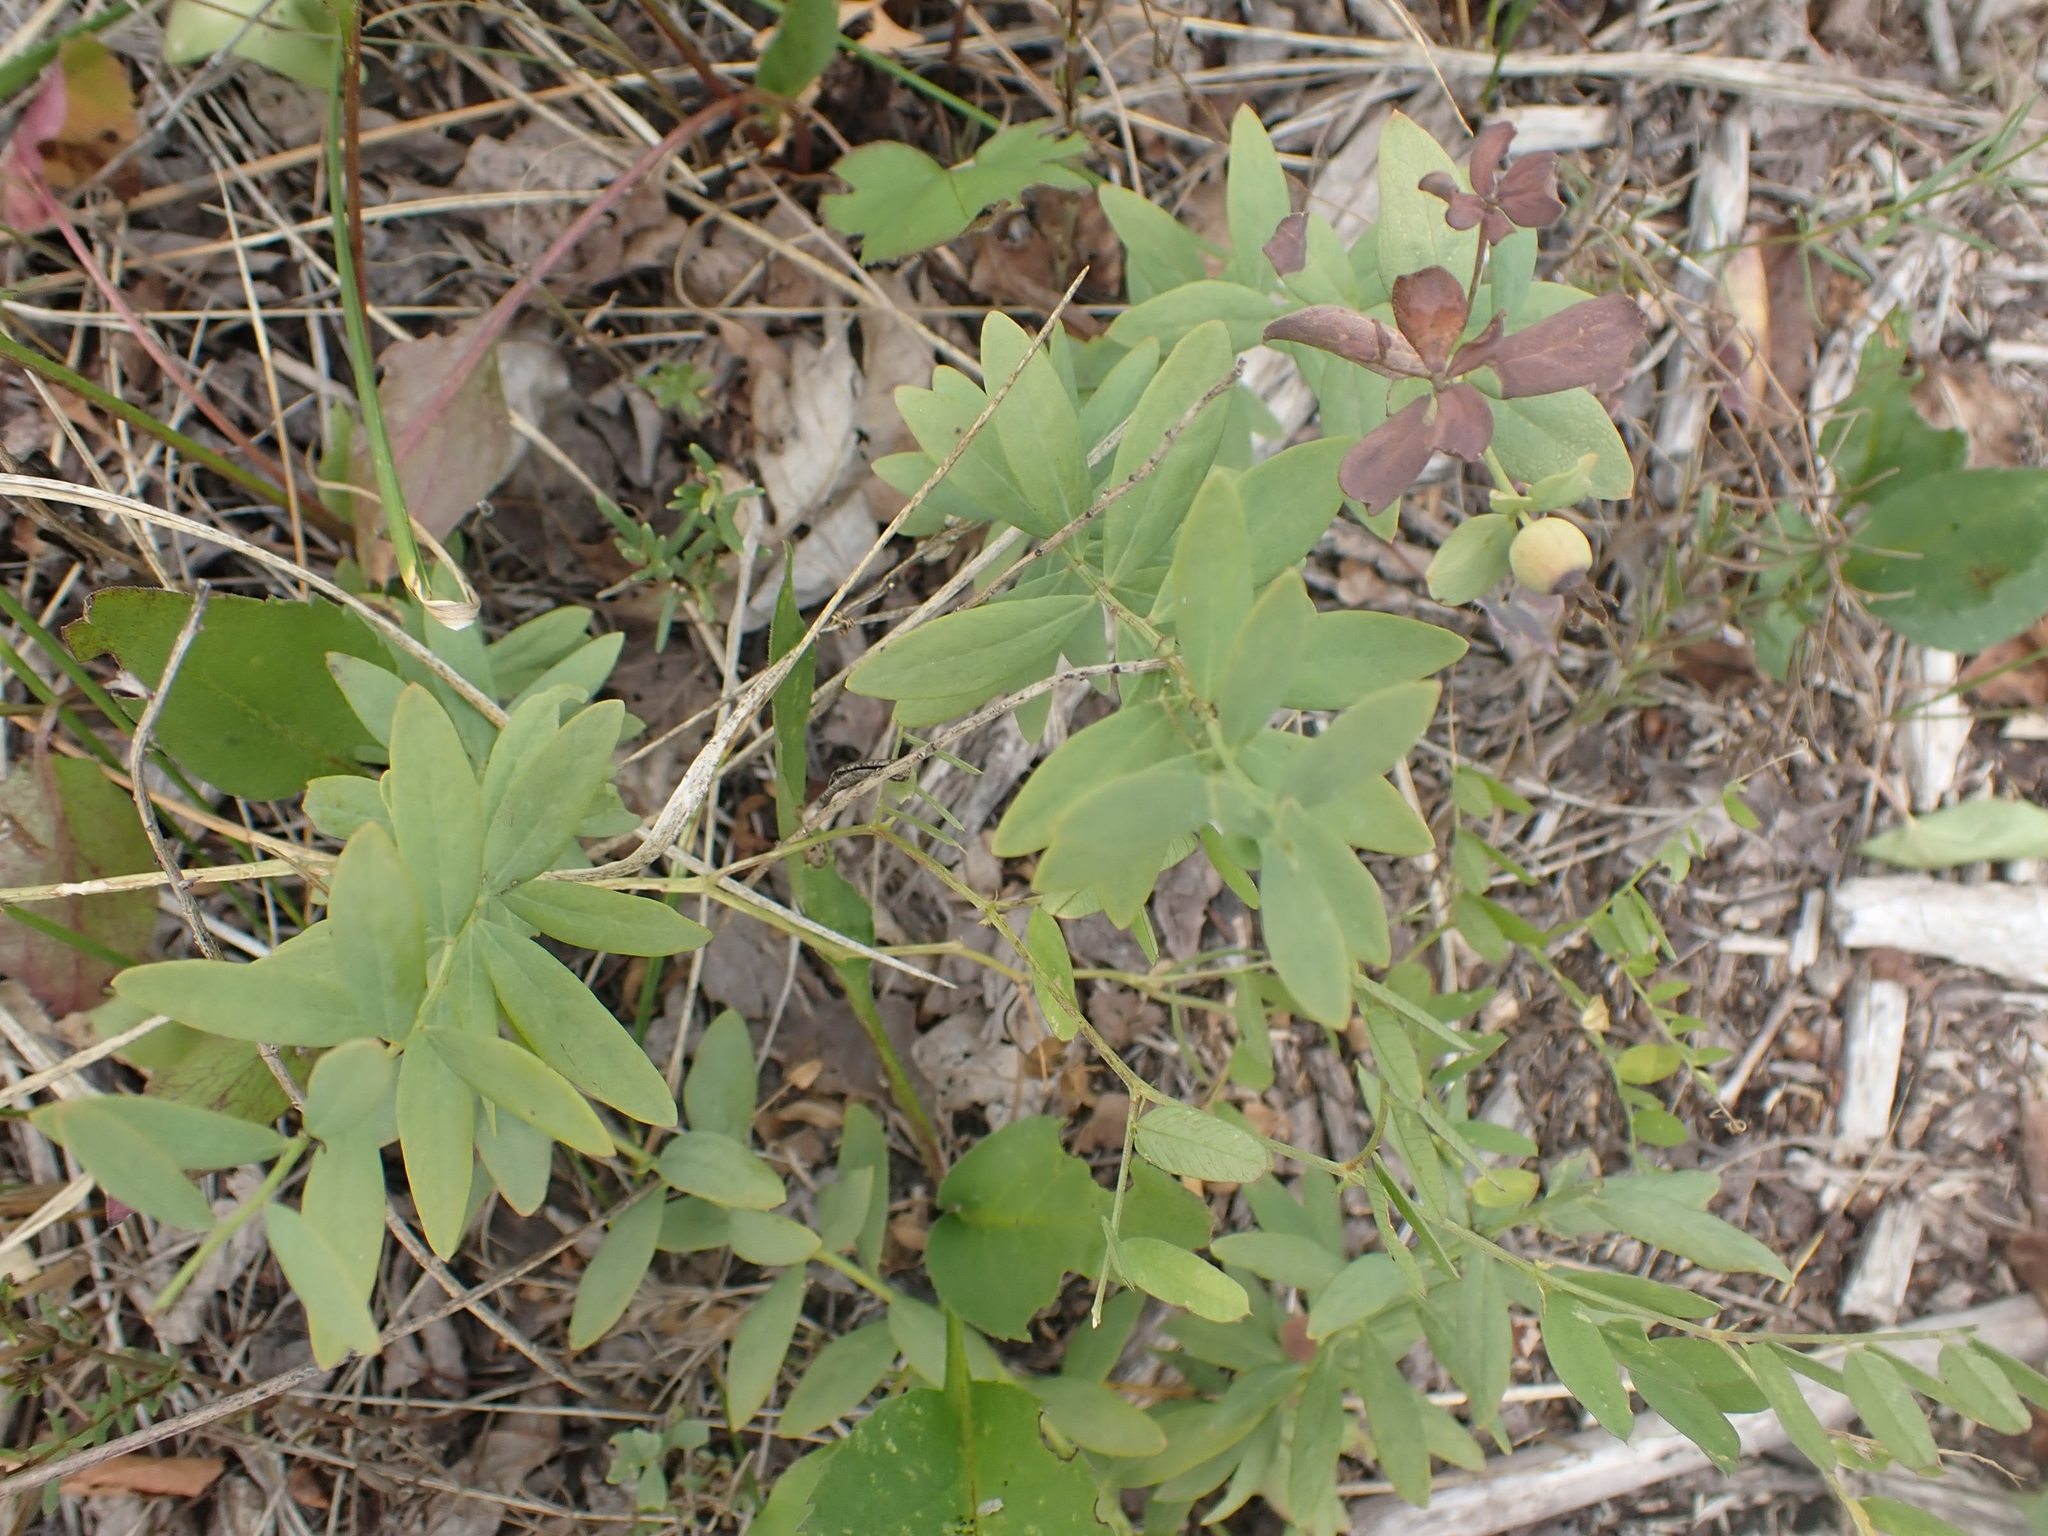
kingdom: Plantae
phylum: Tracheophyta
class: Magnoliopsida
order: Santalales
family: Comandraceae
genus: Comandra
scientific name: Comandra umbellata
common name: Bastard toadflax
